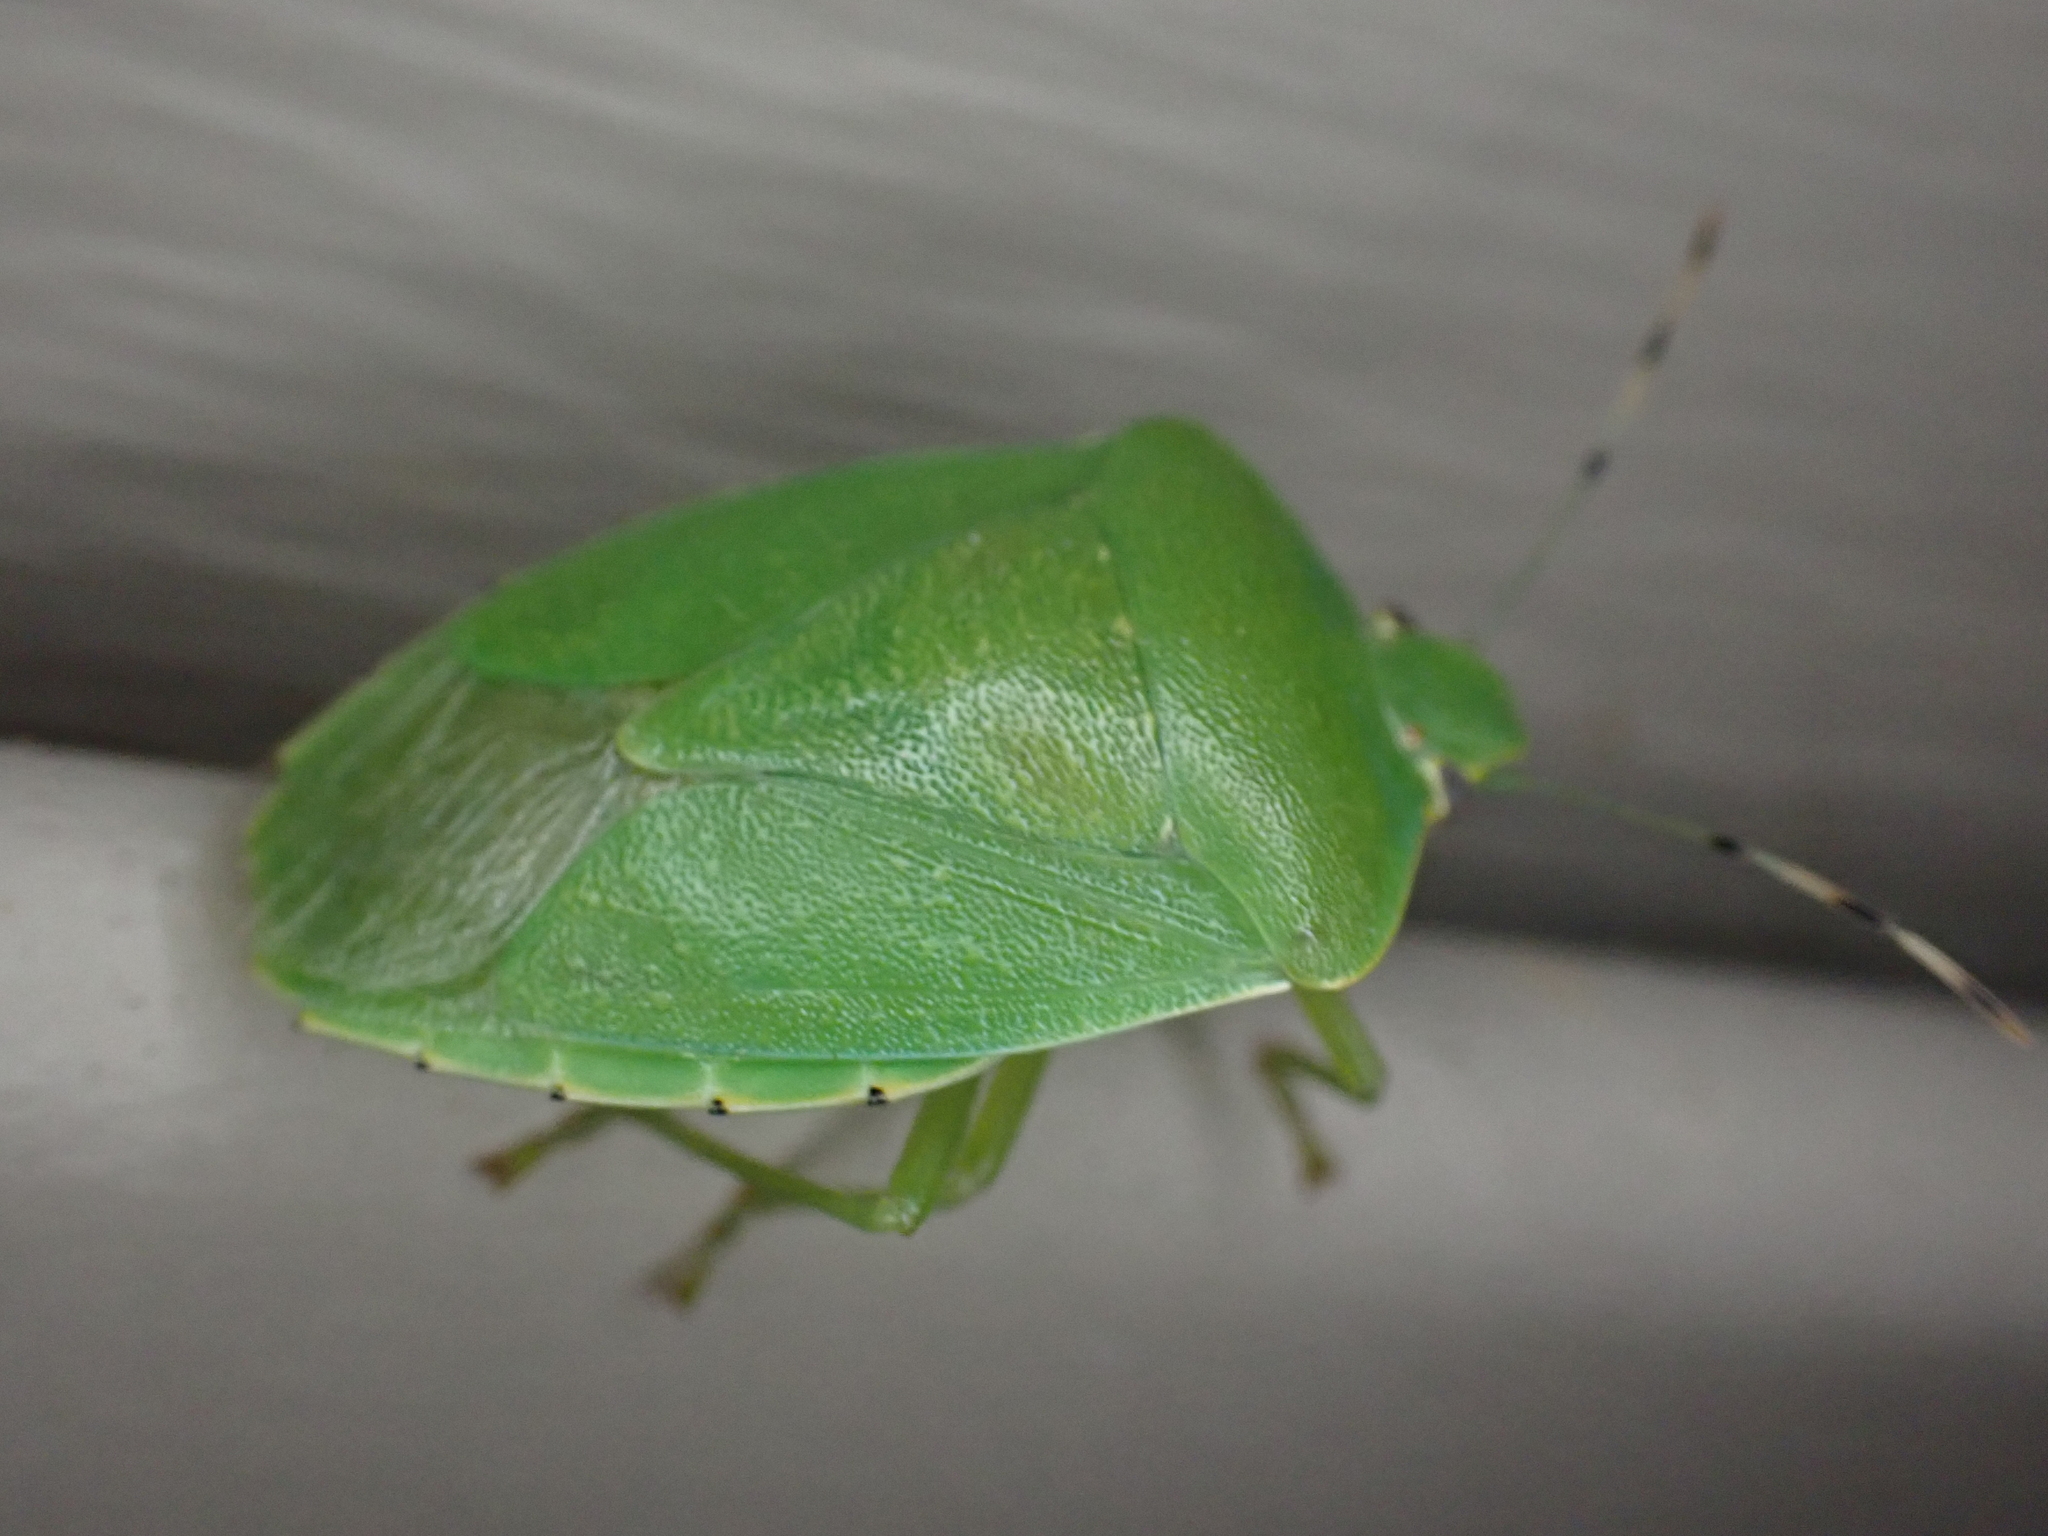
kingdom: Animalia
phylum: Arthropoda
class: Insecta
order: Hemiptera
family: Pentatomidae
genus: Chinavia
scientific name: Chinavia hilaris
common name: Green stink bug
